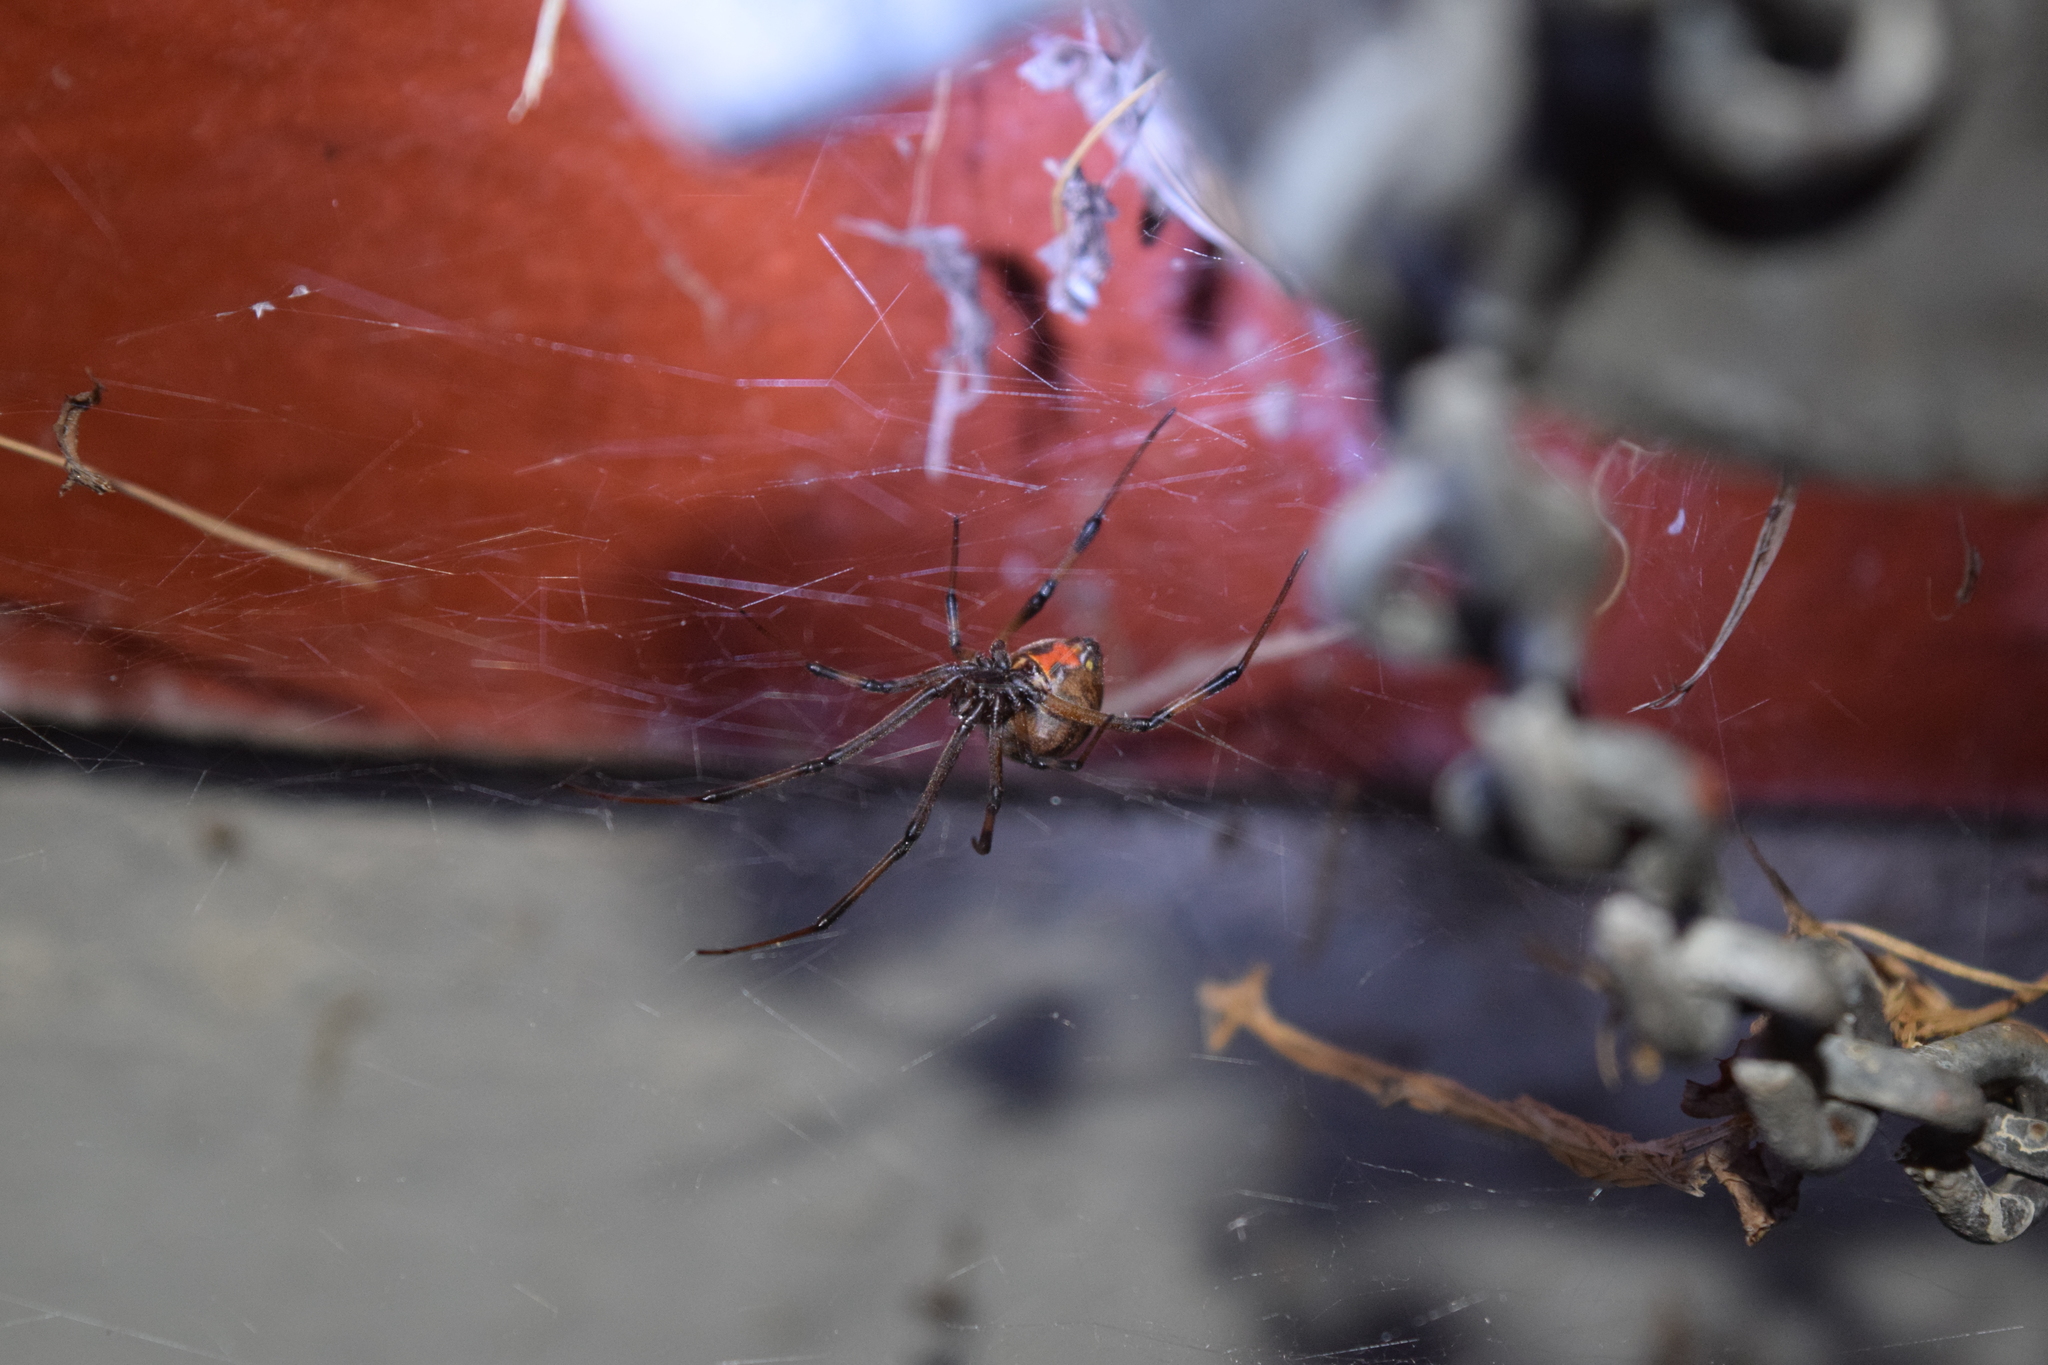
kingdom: Animalia
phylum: Arthropoda
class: Arachnida
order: Araneae
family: Theridiidae
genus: Latrodectus
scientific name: Latrodectus geometricus
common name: Brown widow spider
